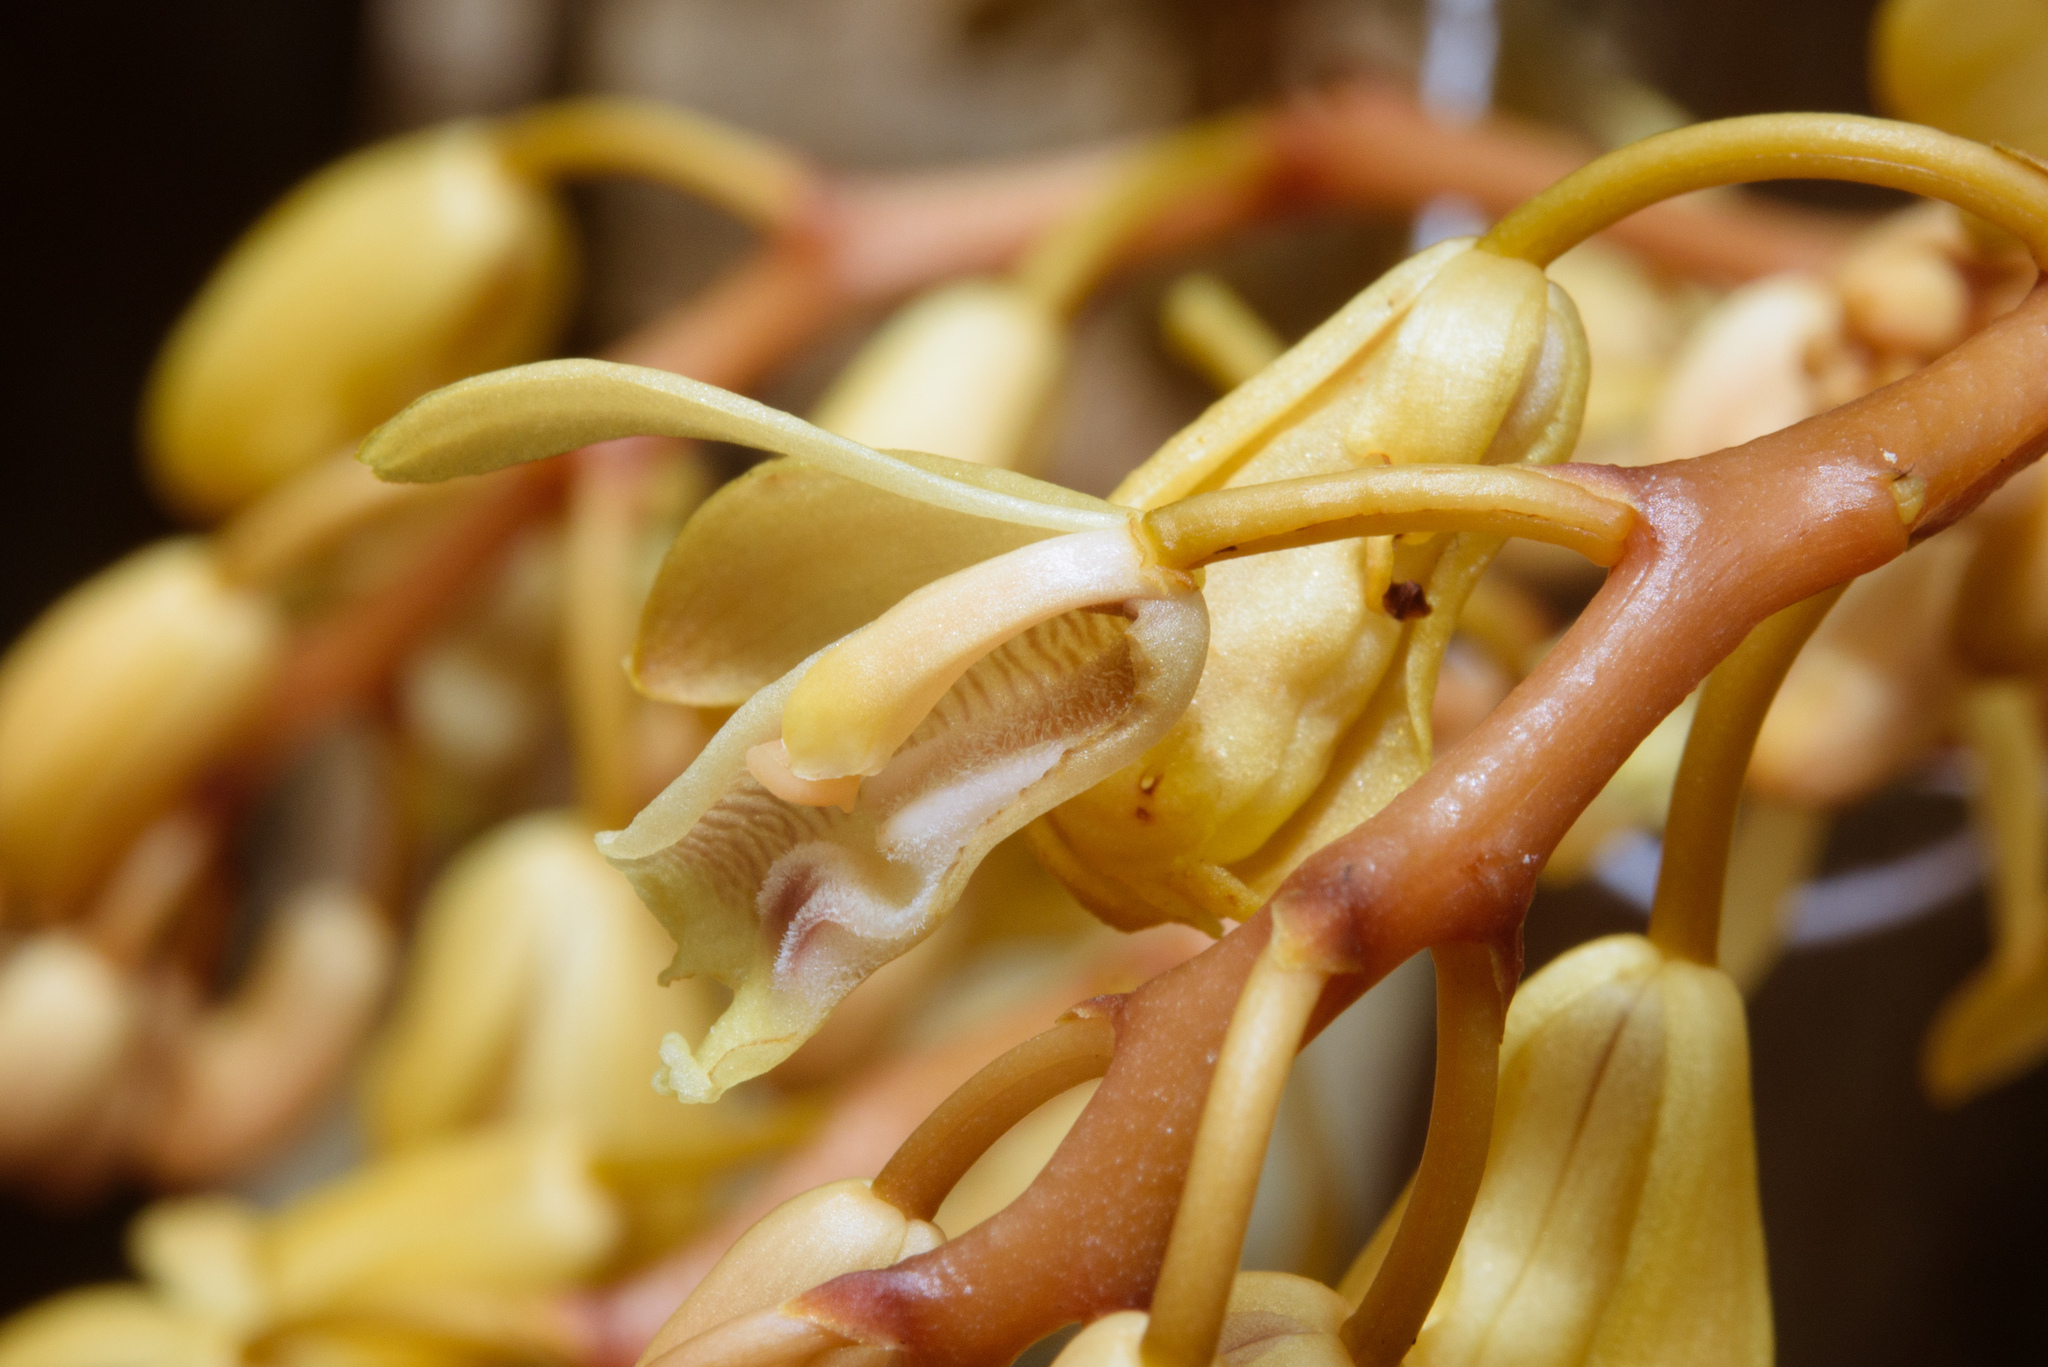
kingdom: Plantae
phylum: Tracheophyta
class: Liliopsida
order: Asparagales
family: Orchidaceae
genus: Erythrorchis
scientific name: Erythrorchis altissima
